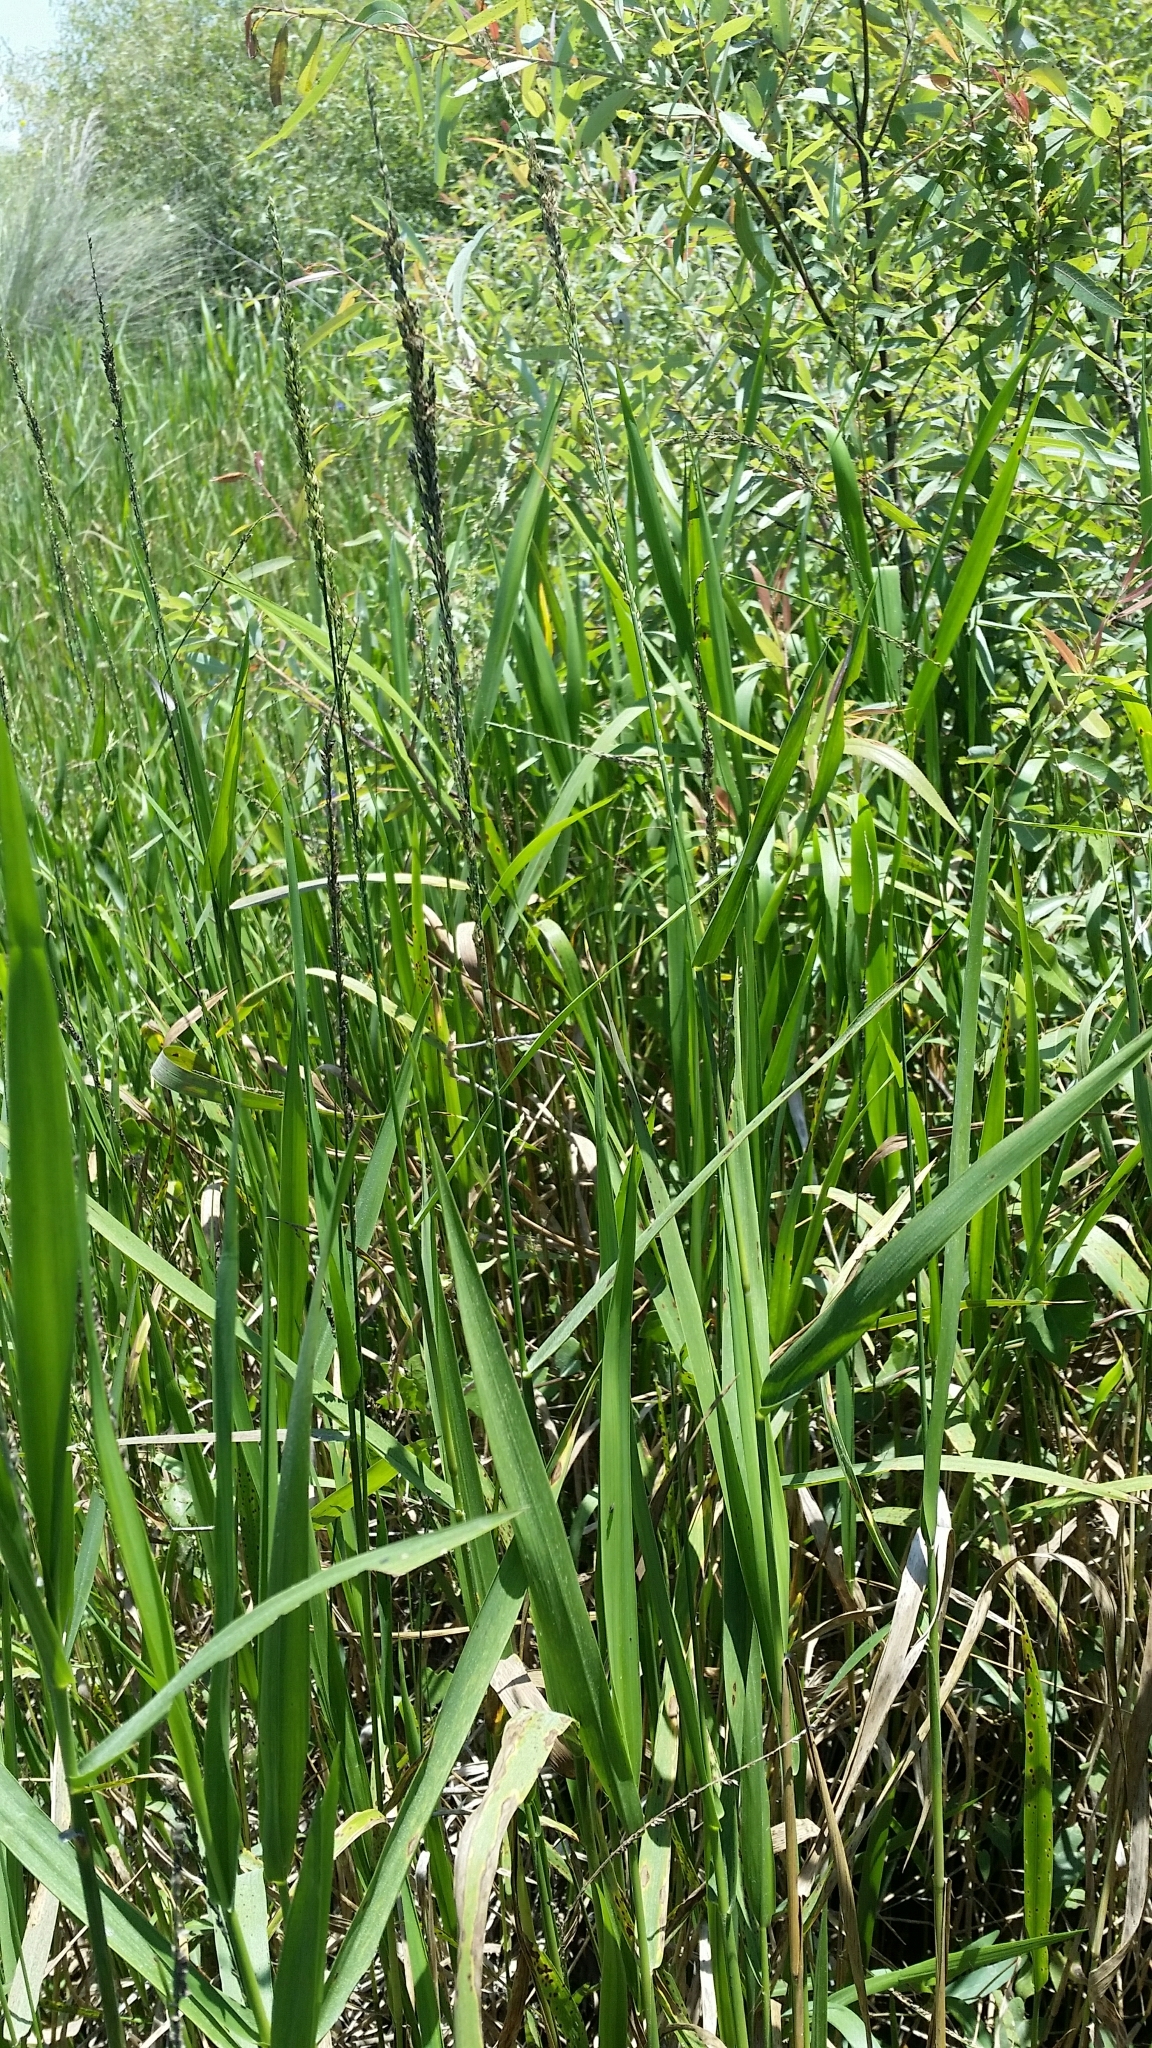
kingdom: Plantae
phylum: Tracheophyta
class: Liliopsida
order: Poales
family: Poaceae
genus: Panicum
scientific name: Panicum hemitomon
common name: Maidencane
